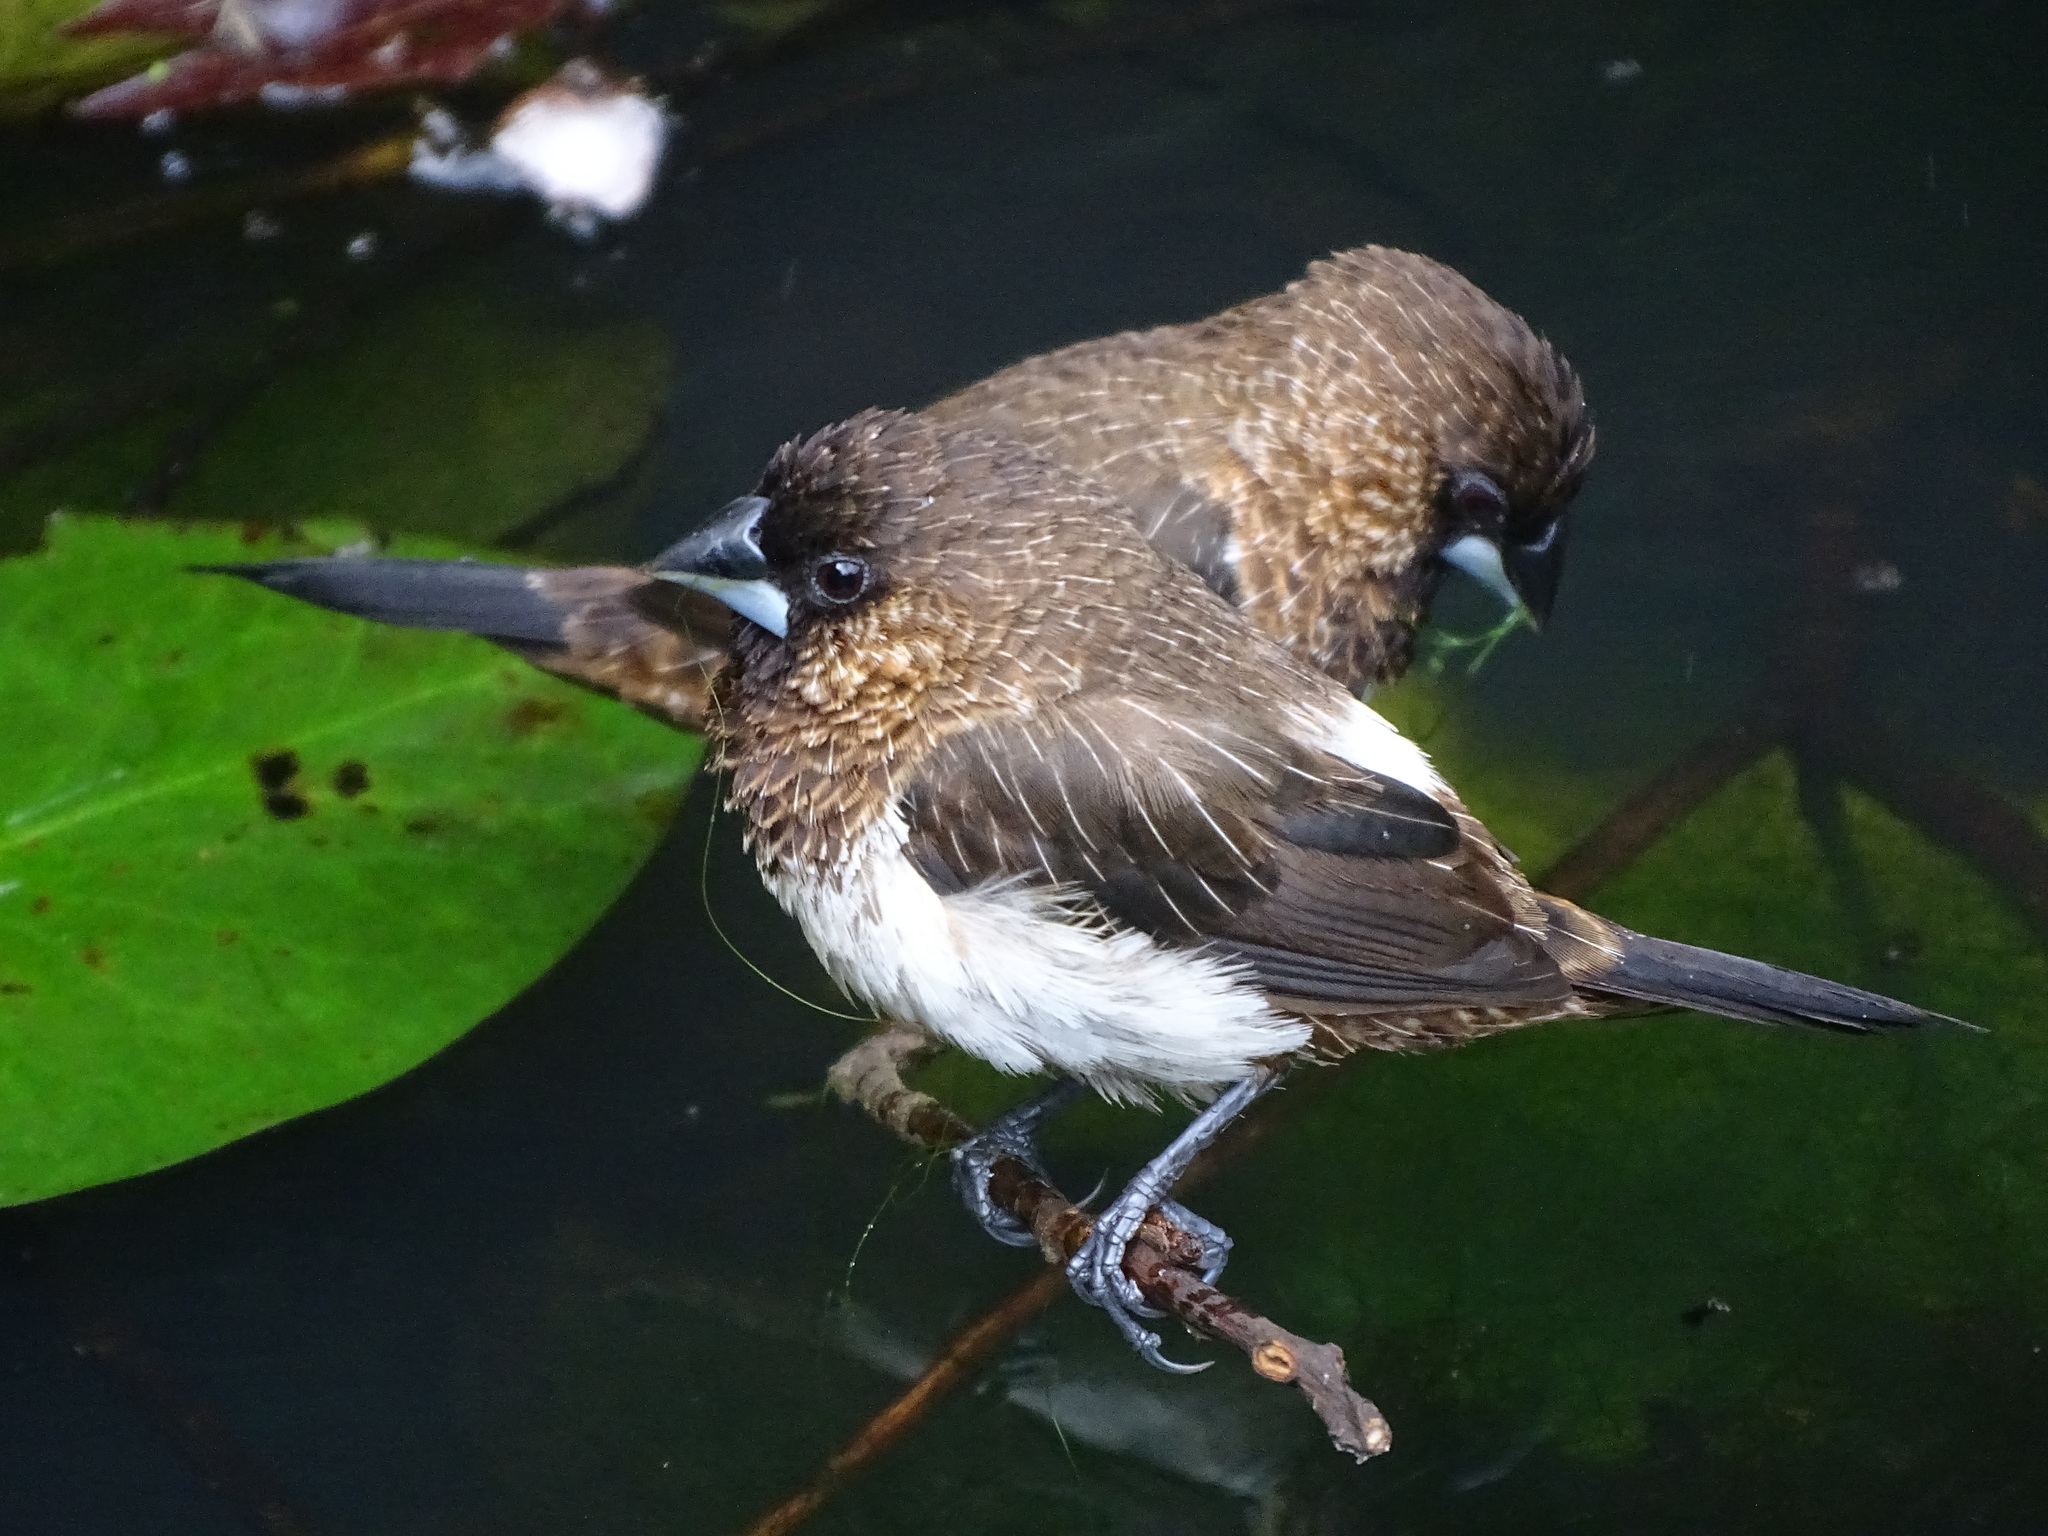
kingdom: Animalia
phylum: Chordata
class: Aves
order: Passeriformes
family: Estrildidae
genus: Lonchura
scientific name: Lonchura striata
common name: White-rumped munia
